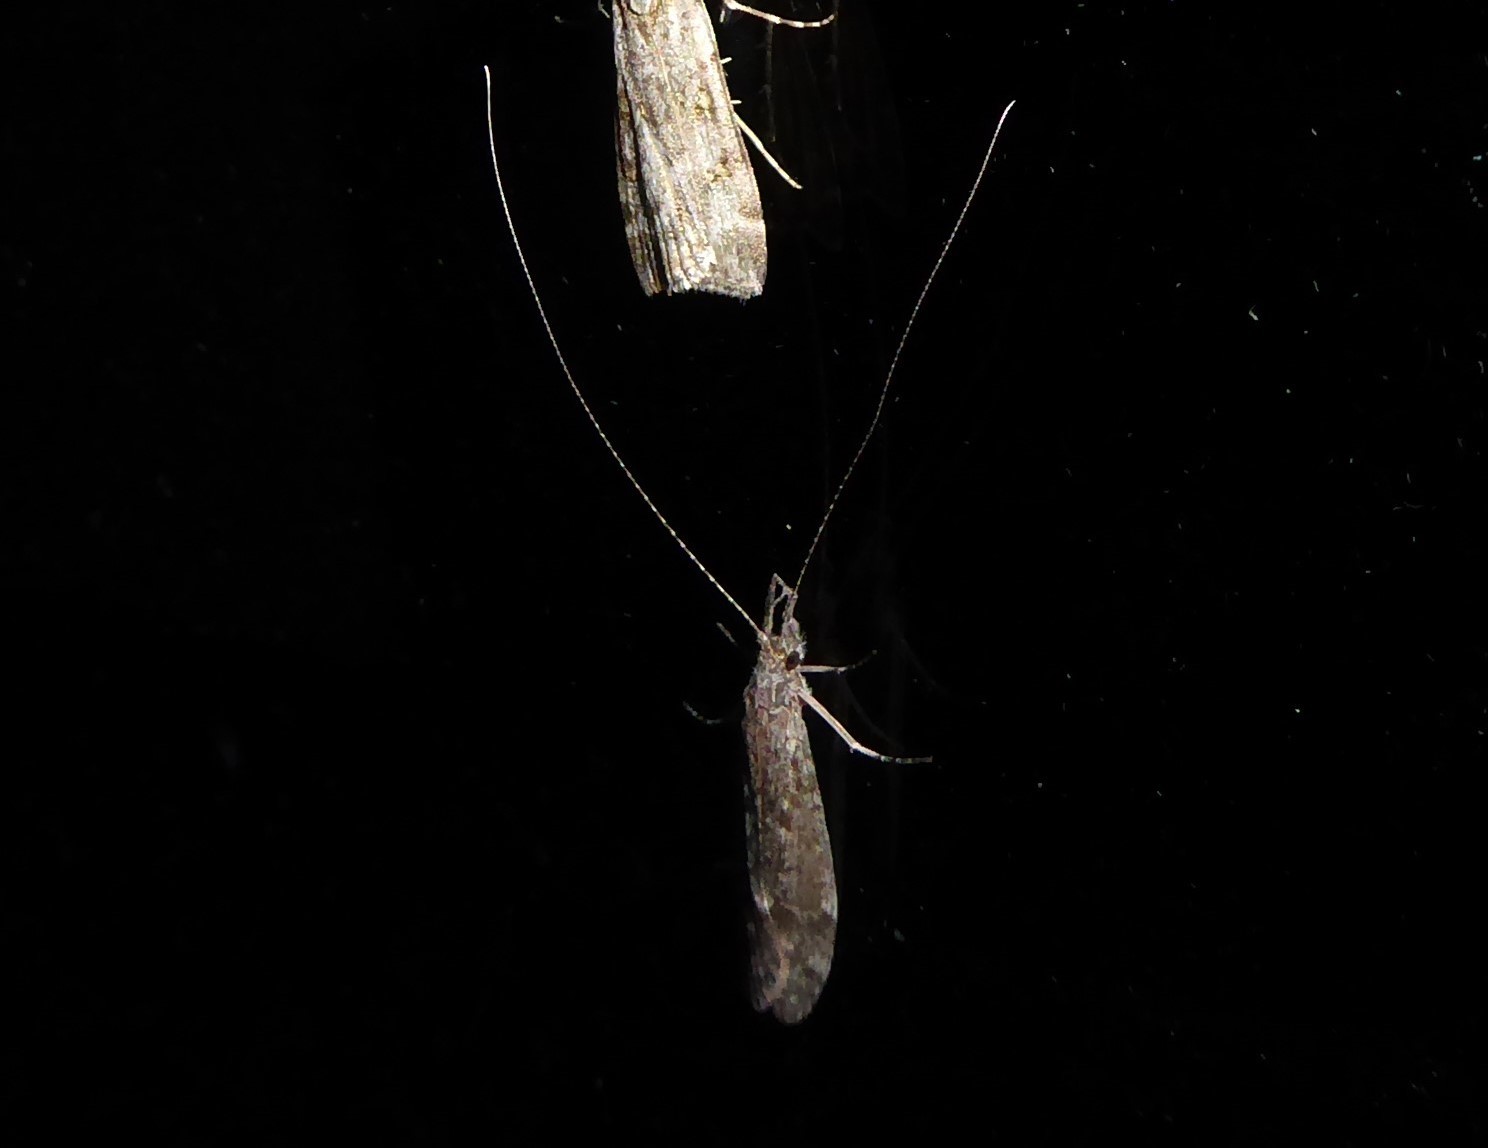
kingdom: Animalia
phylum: Arthropoda
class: Insecta
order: Trichoptera
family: Leptoceridae
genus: Triplectides
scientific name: Triplectides obsoletus
